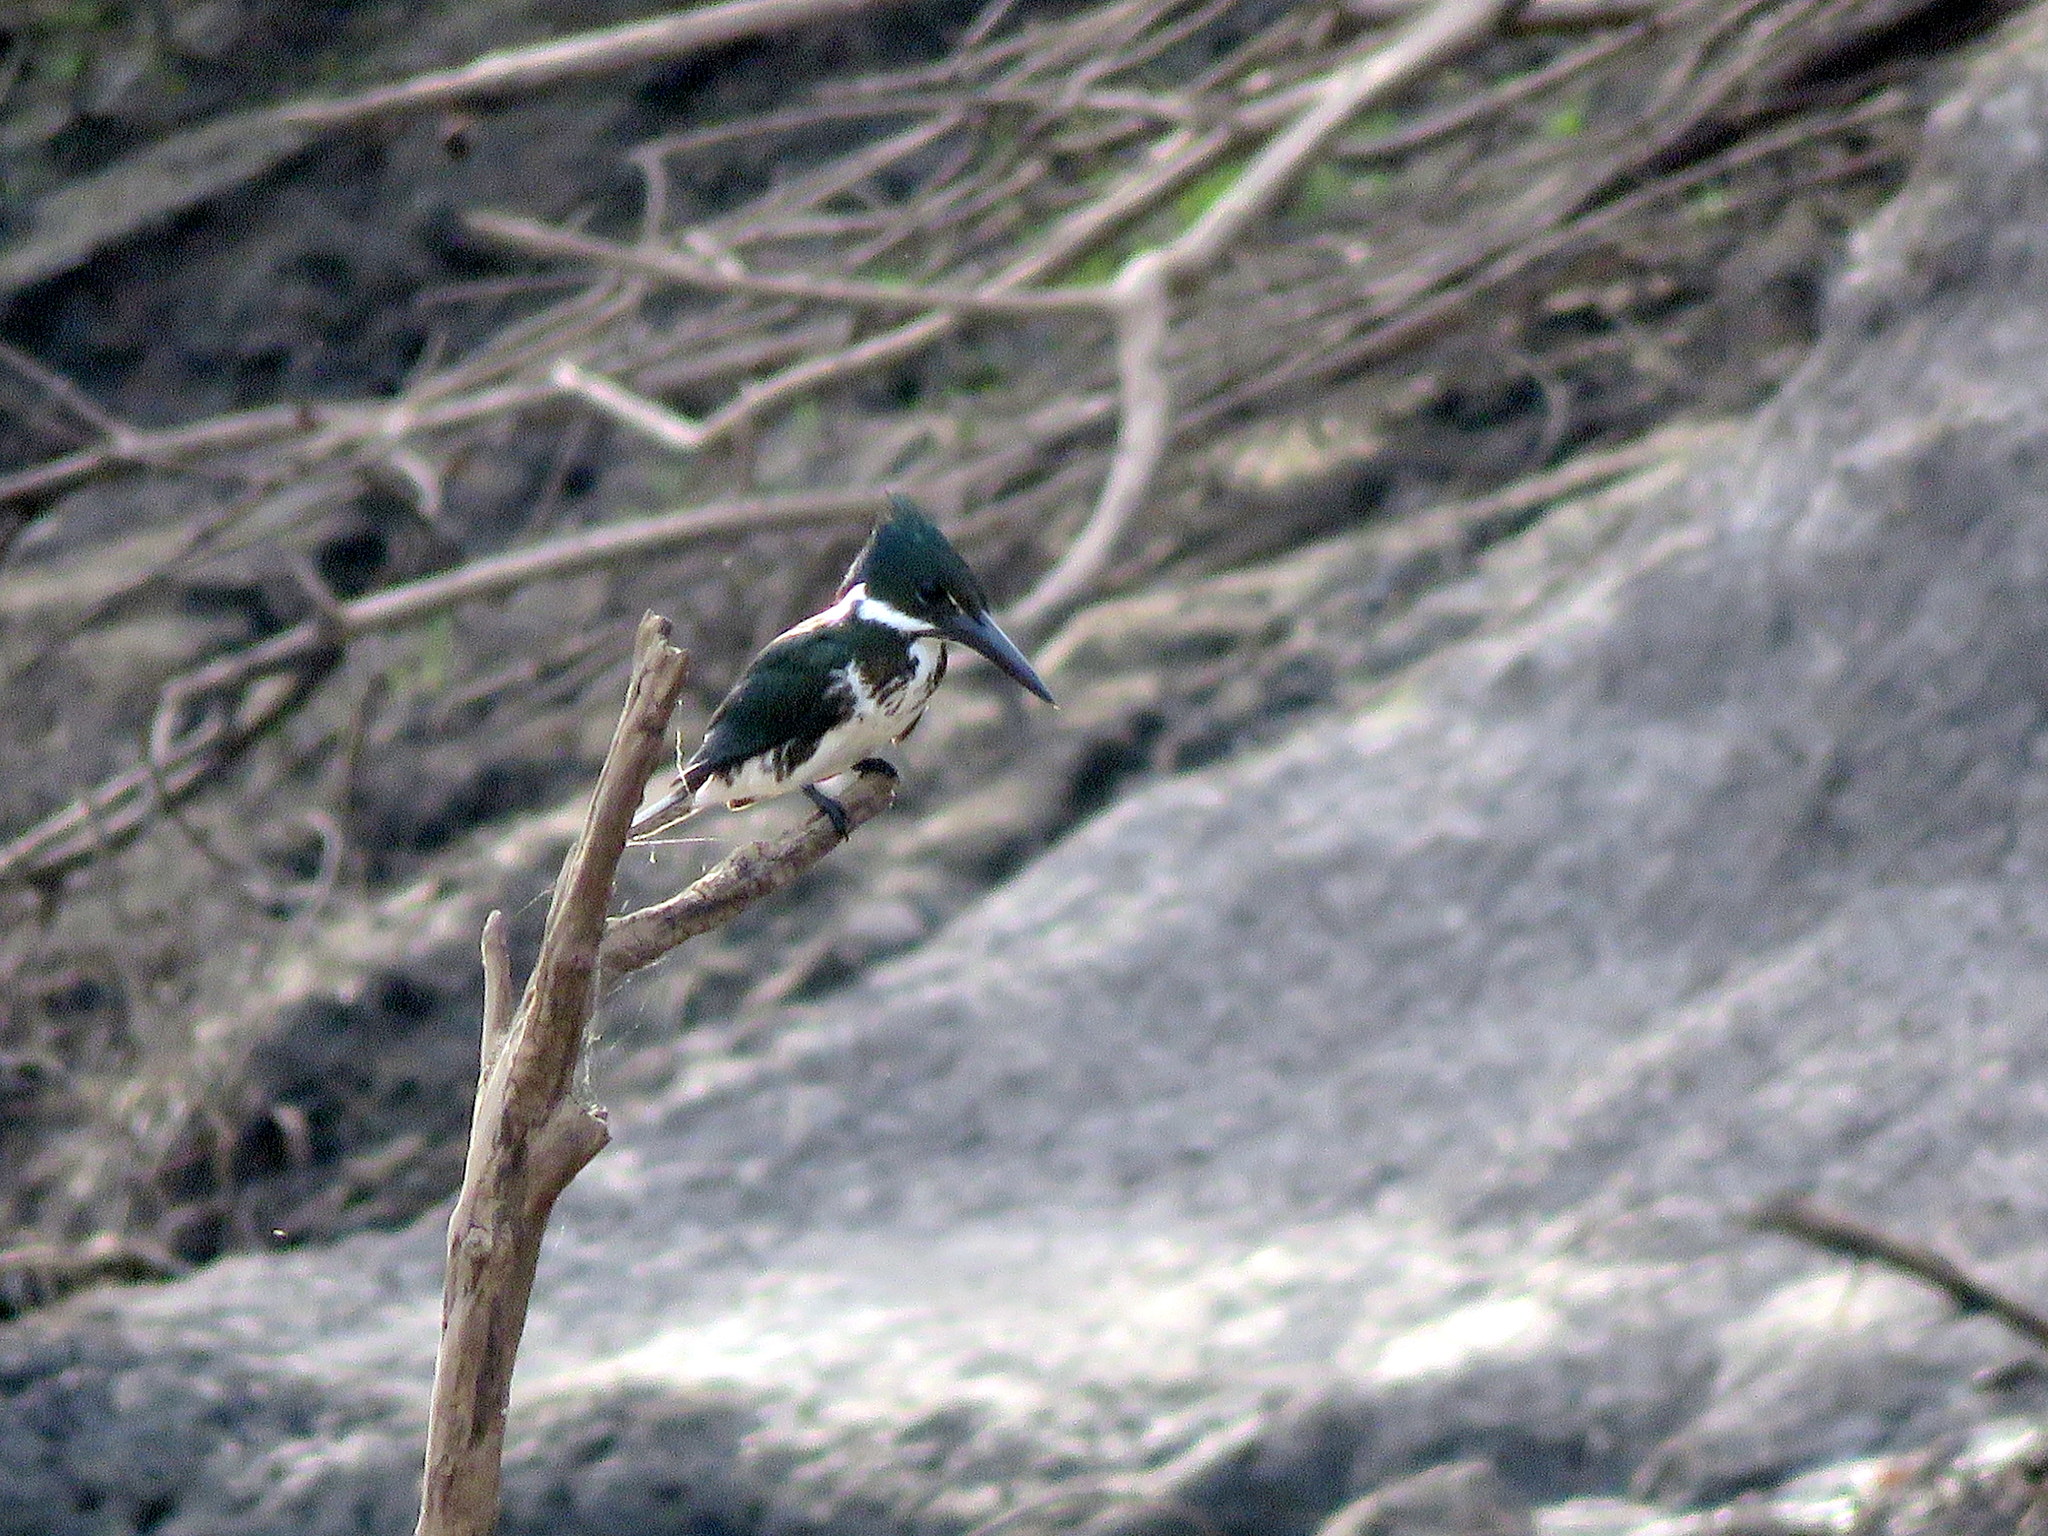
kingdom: Animalia
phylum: Chordata
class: Aves
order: Coraciiformes
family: Alcedinidae
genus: Chloroceryle
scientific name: Chloroceryle amazona
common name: Amazon kingfisher
